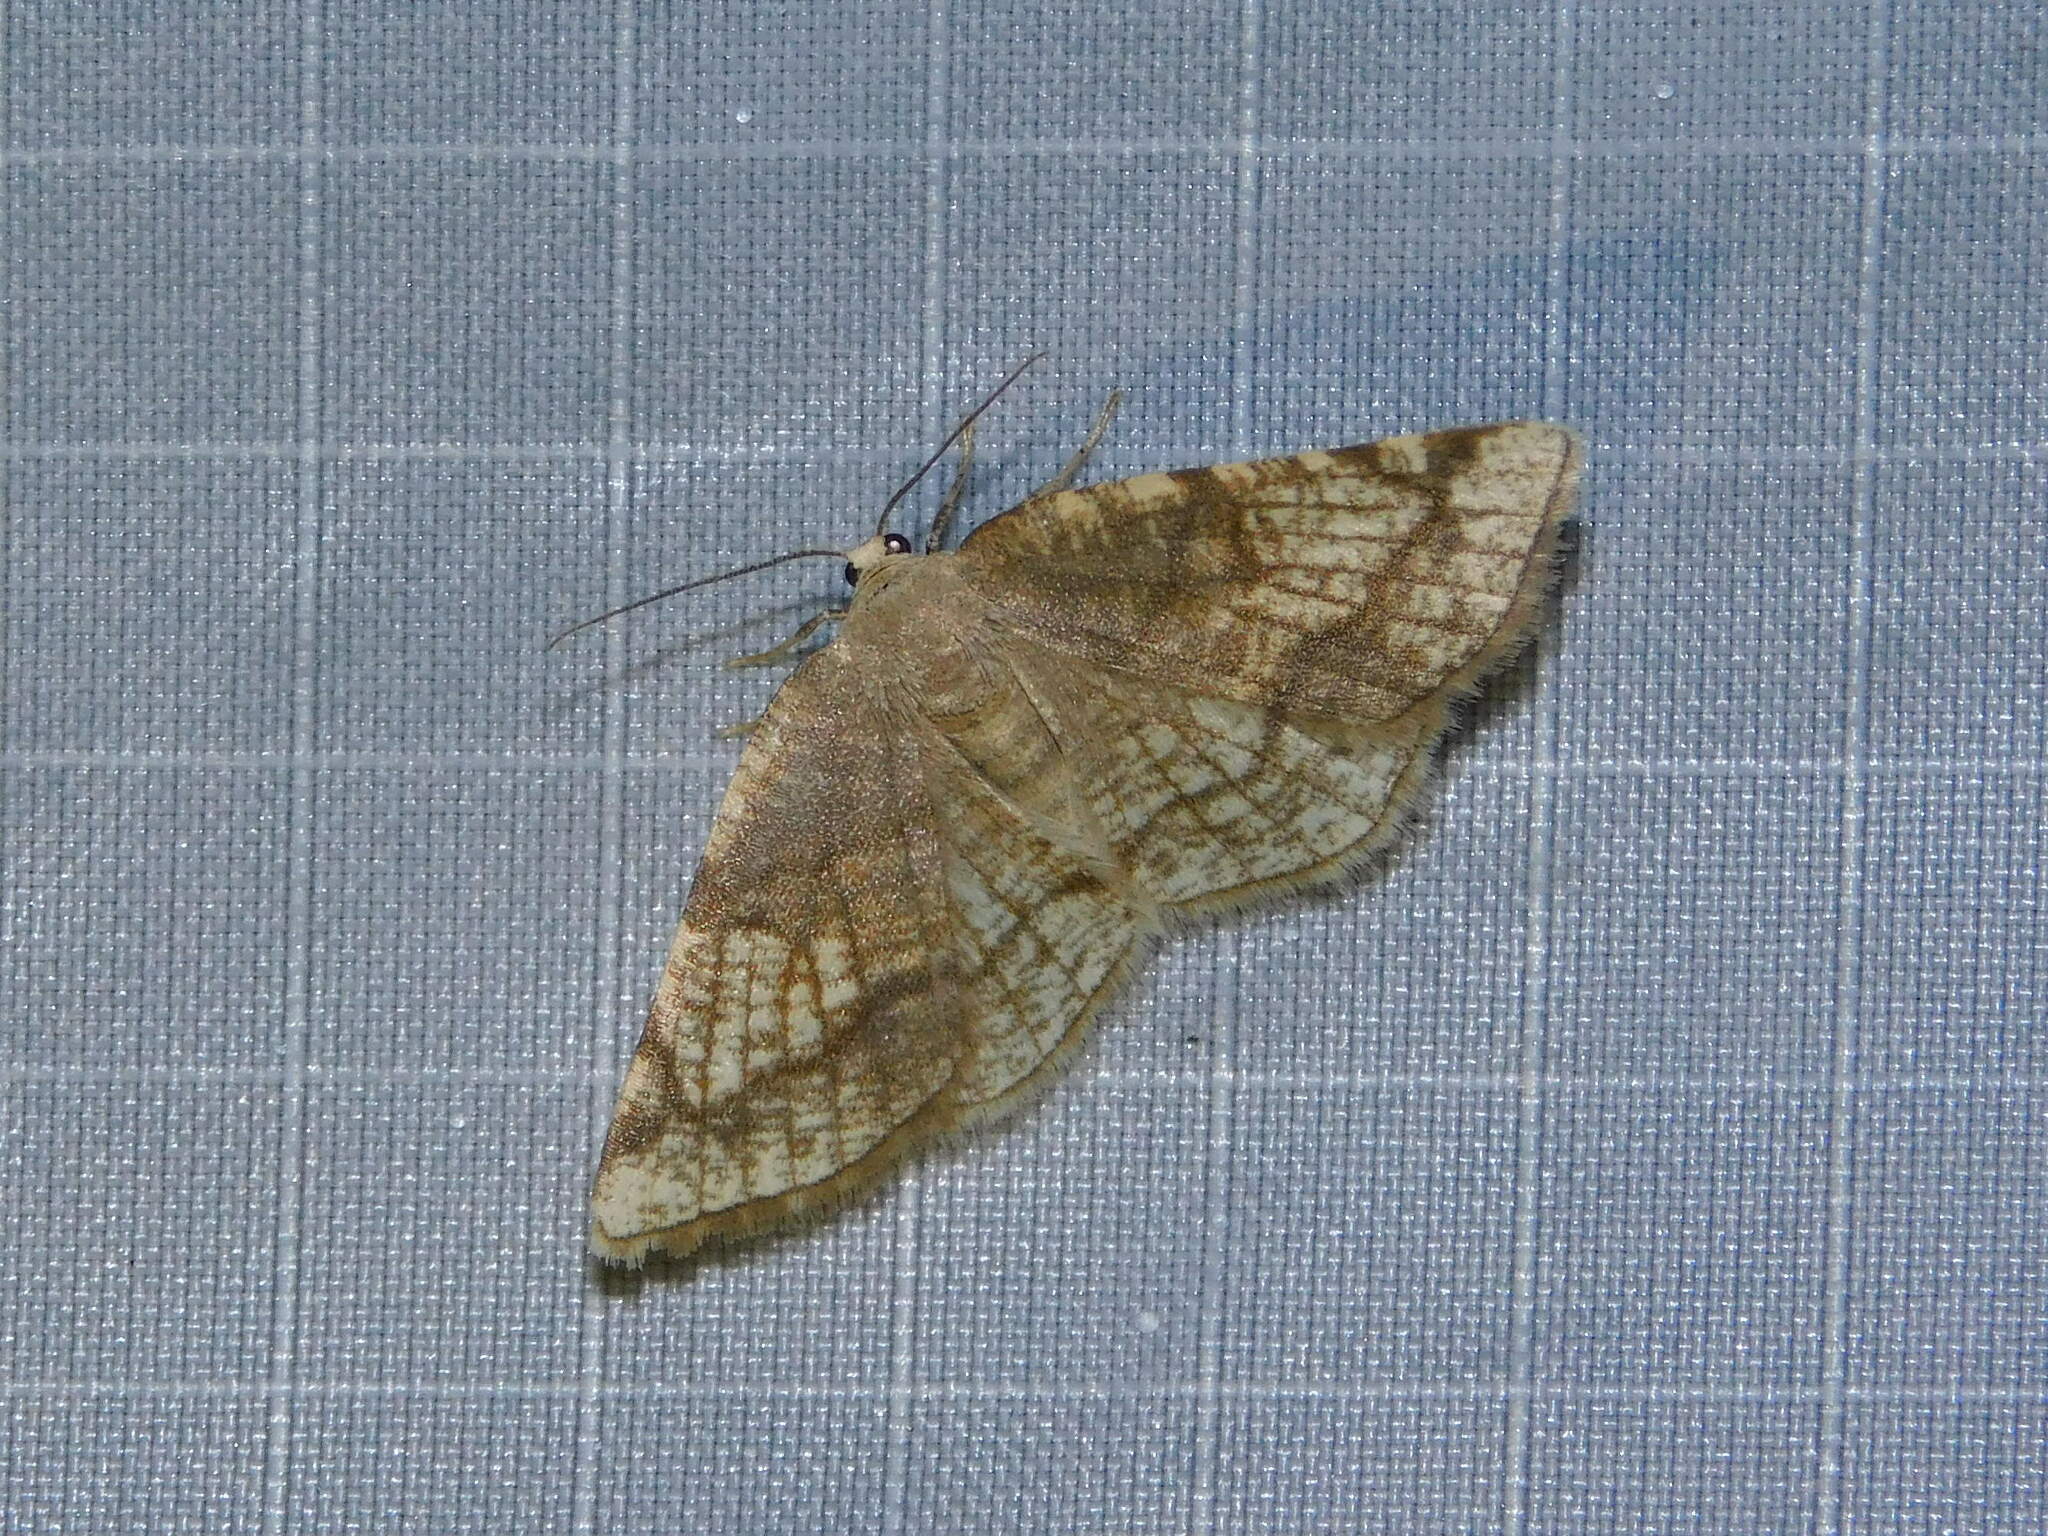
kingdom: Animalia
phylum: Arthropoda
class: Insecta
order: Lepidoptera
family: Geometridae
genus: Stegania
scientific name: Stegania trimaculata
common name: Dorset cream wave
